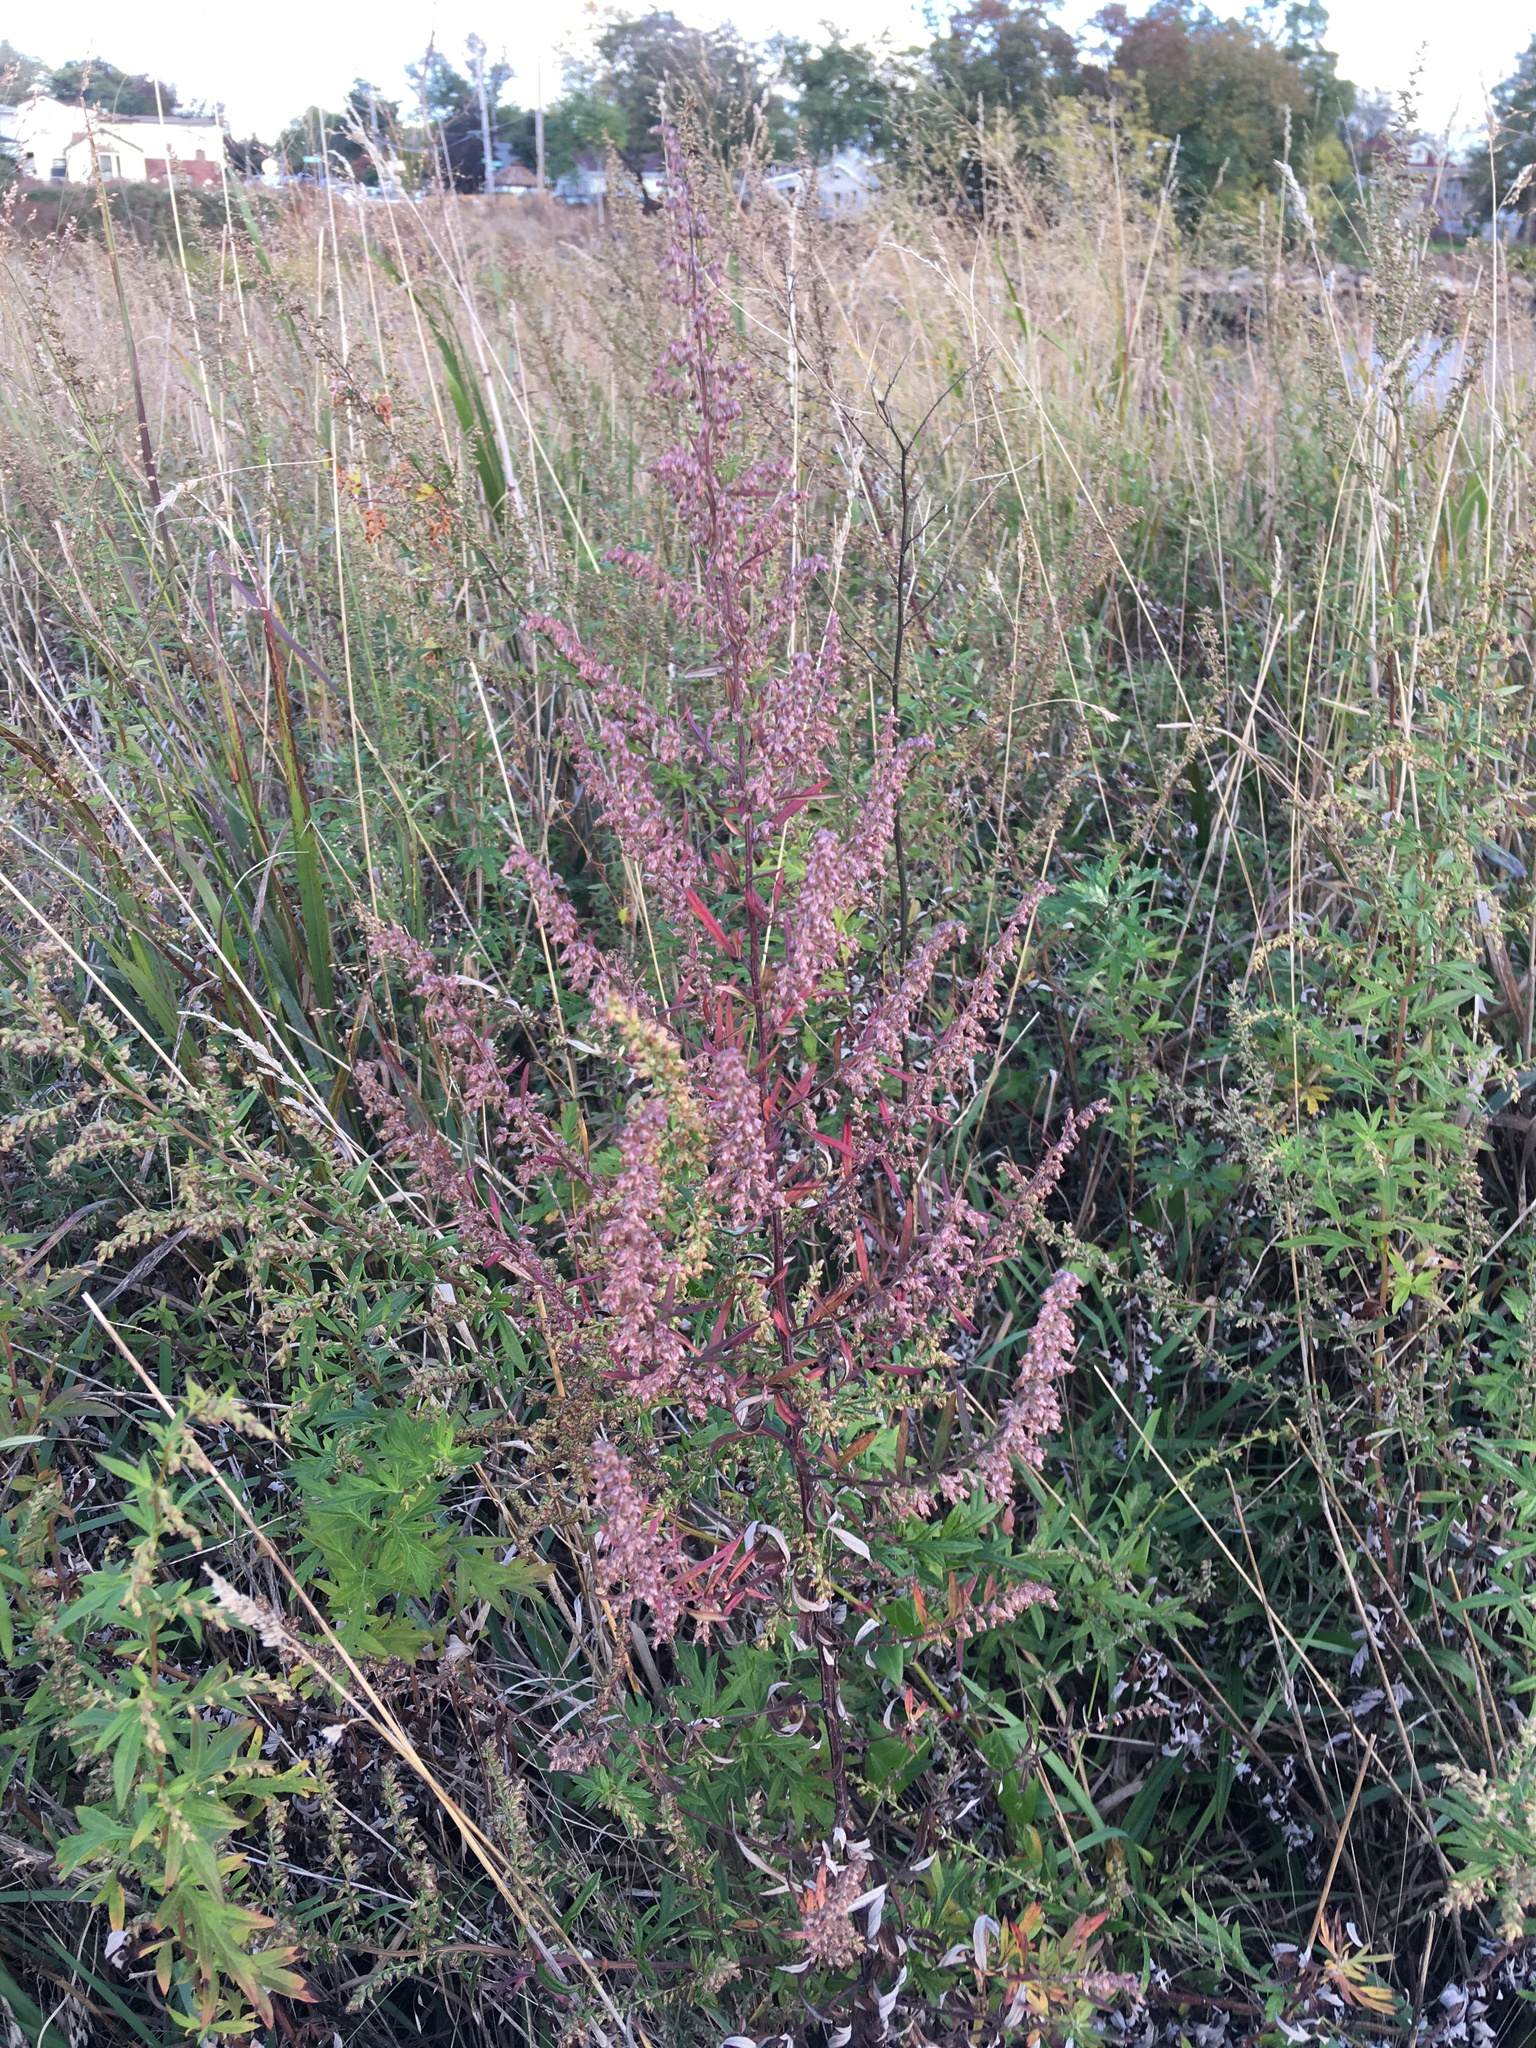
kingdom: Plantae
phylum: Tracheophyta
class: Magnoliopsida
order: Asterales
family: Asteraceae
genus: Artemisia
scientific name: Artemisia vulgaris
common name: Mugwort
